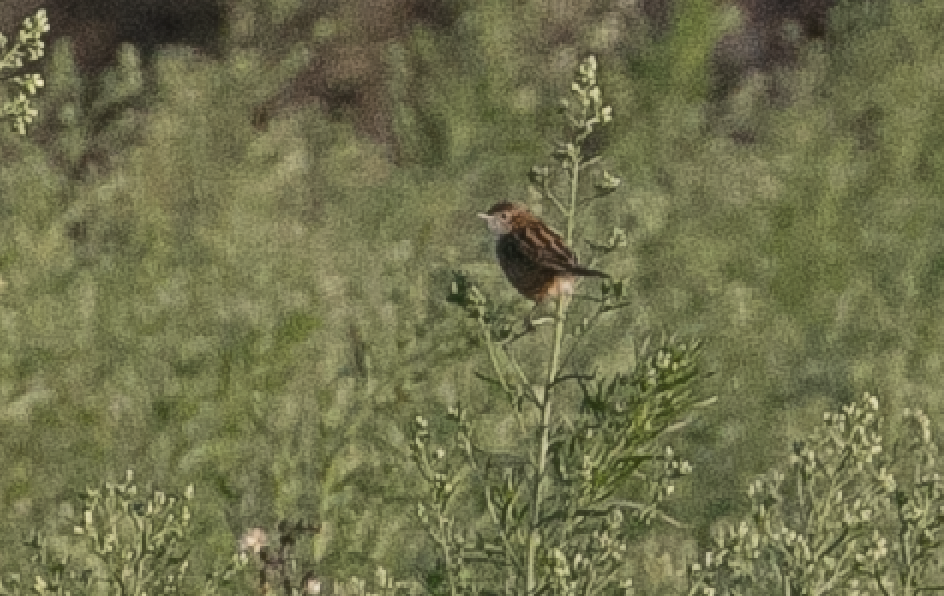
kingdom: Animalia
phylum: Chordata
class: Aves
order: Passeriformes
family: Cisticolidae
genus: Cisticola
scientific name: Cisticola juncidis
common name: Zitting cisticola
